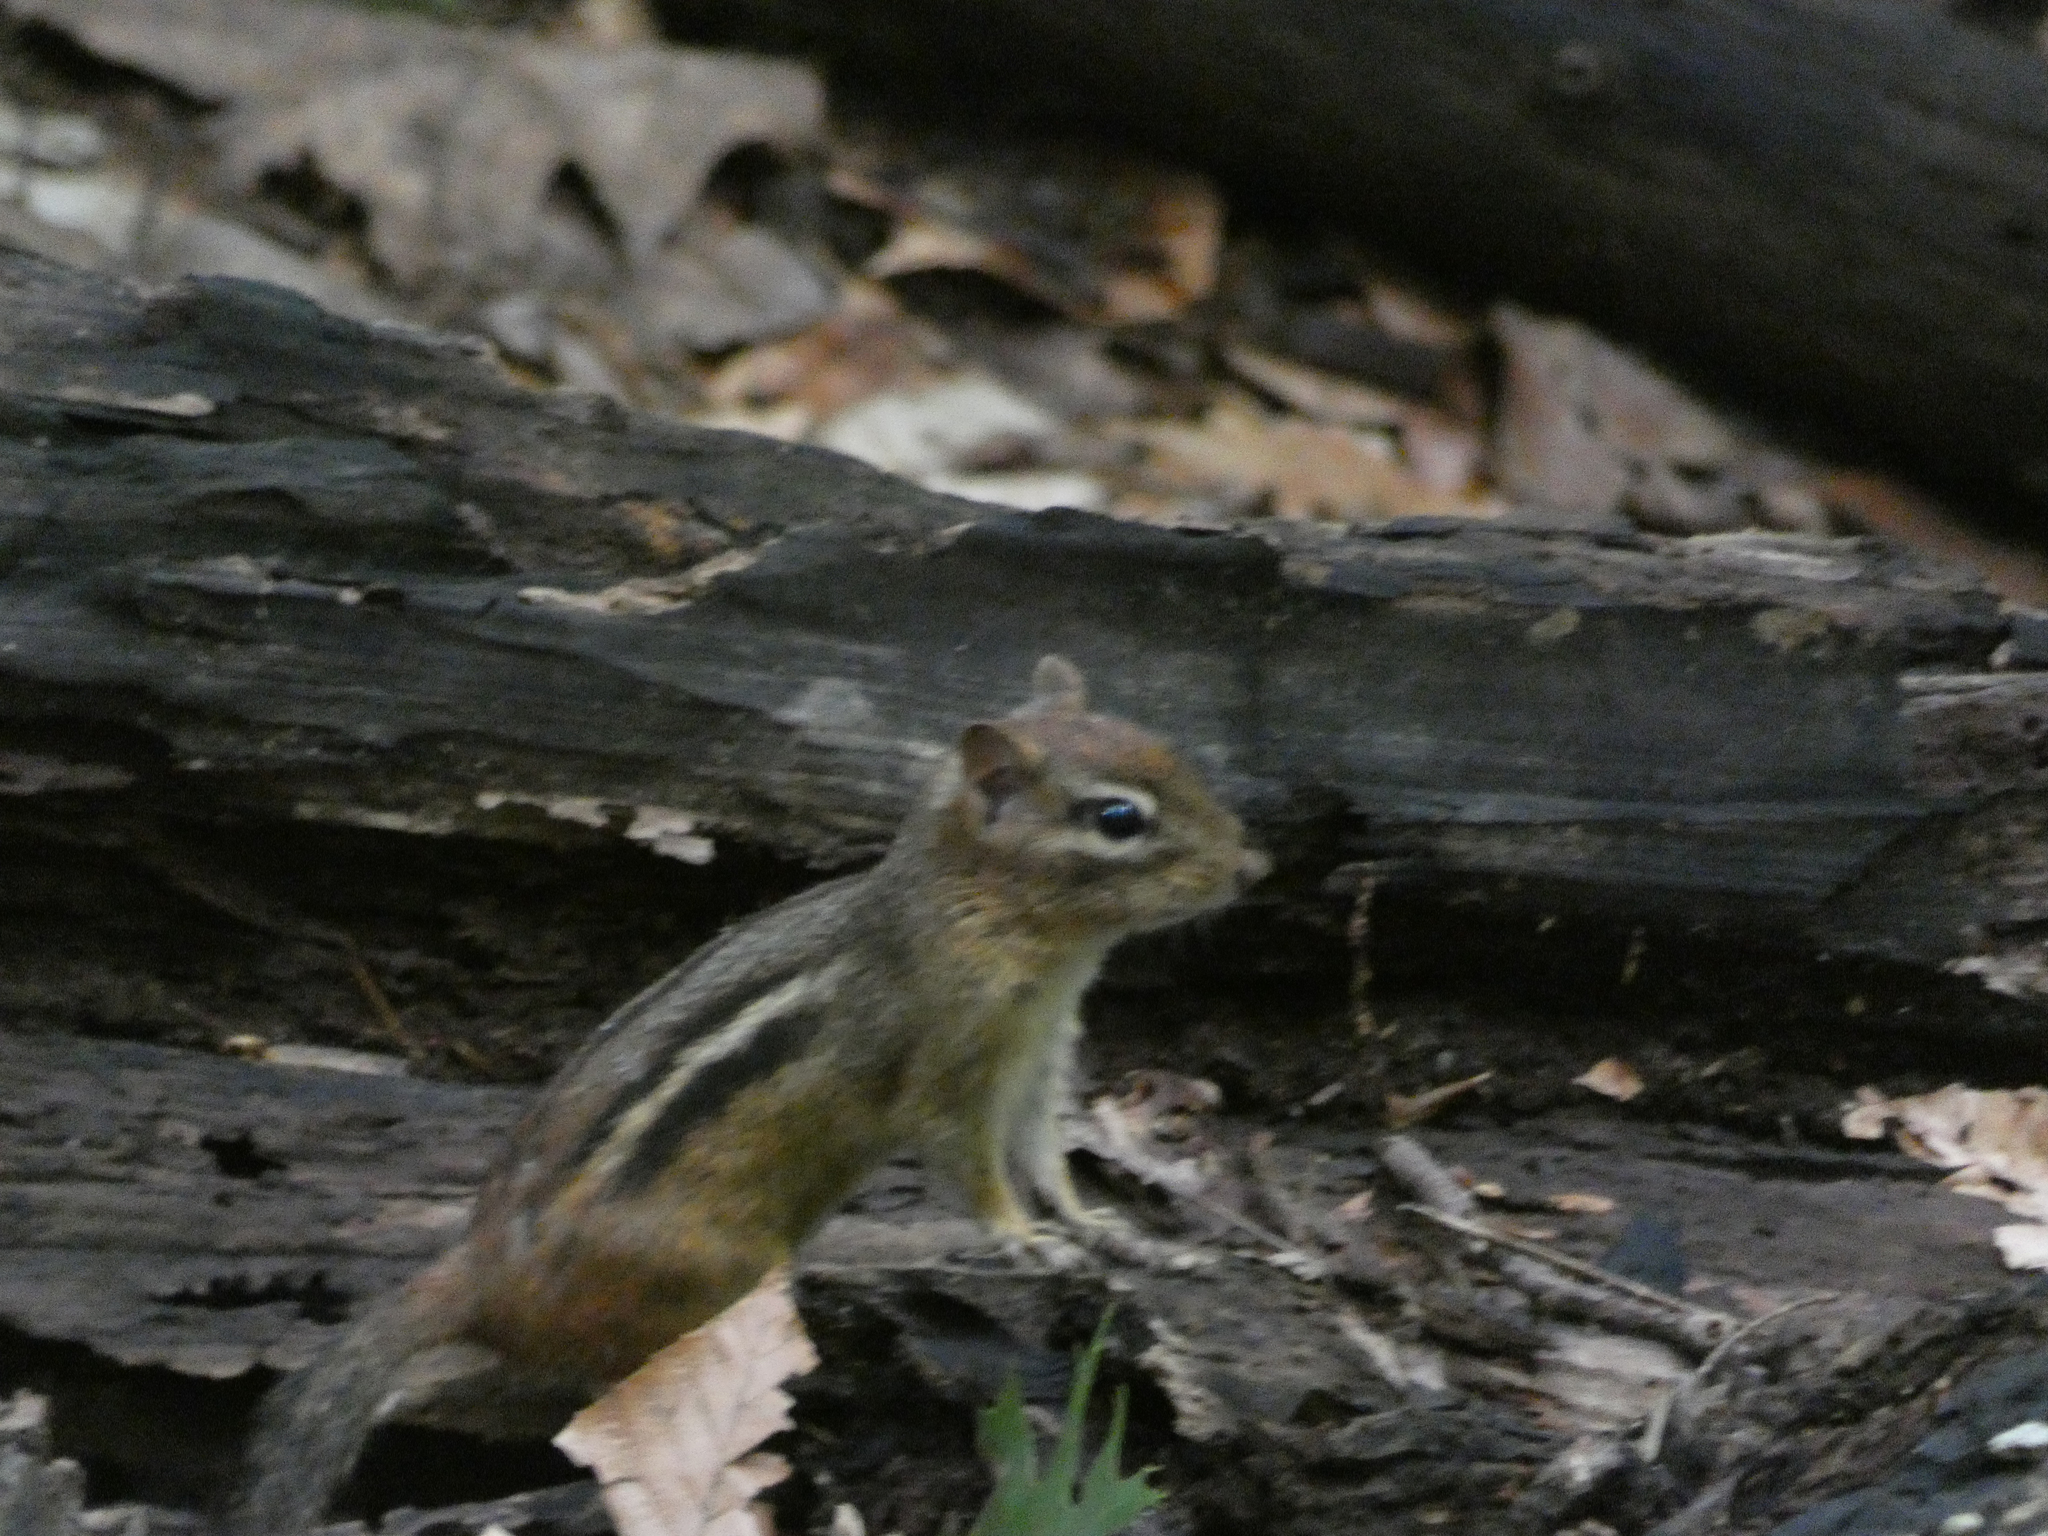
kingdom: Animalia
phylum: Chordata
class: Mammalia
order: Rodentia
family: Sciuridae
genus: Tamias
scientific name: Tamias striatus
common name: Eastern chipmunk
